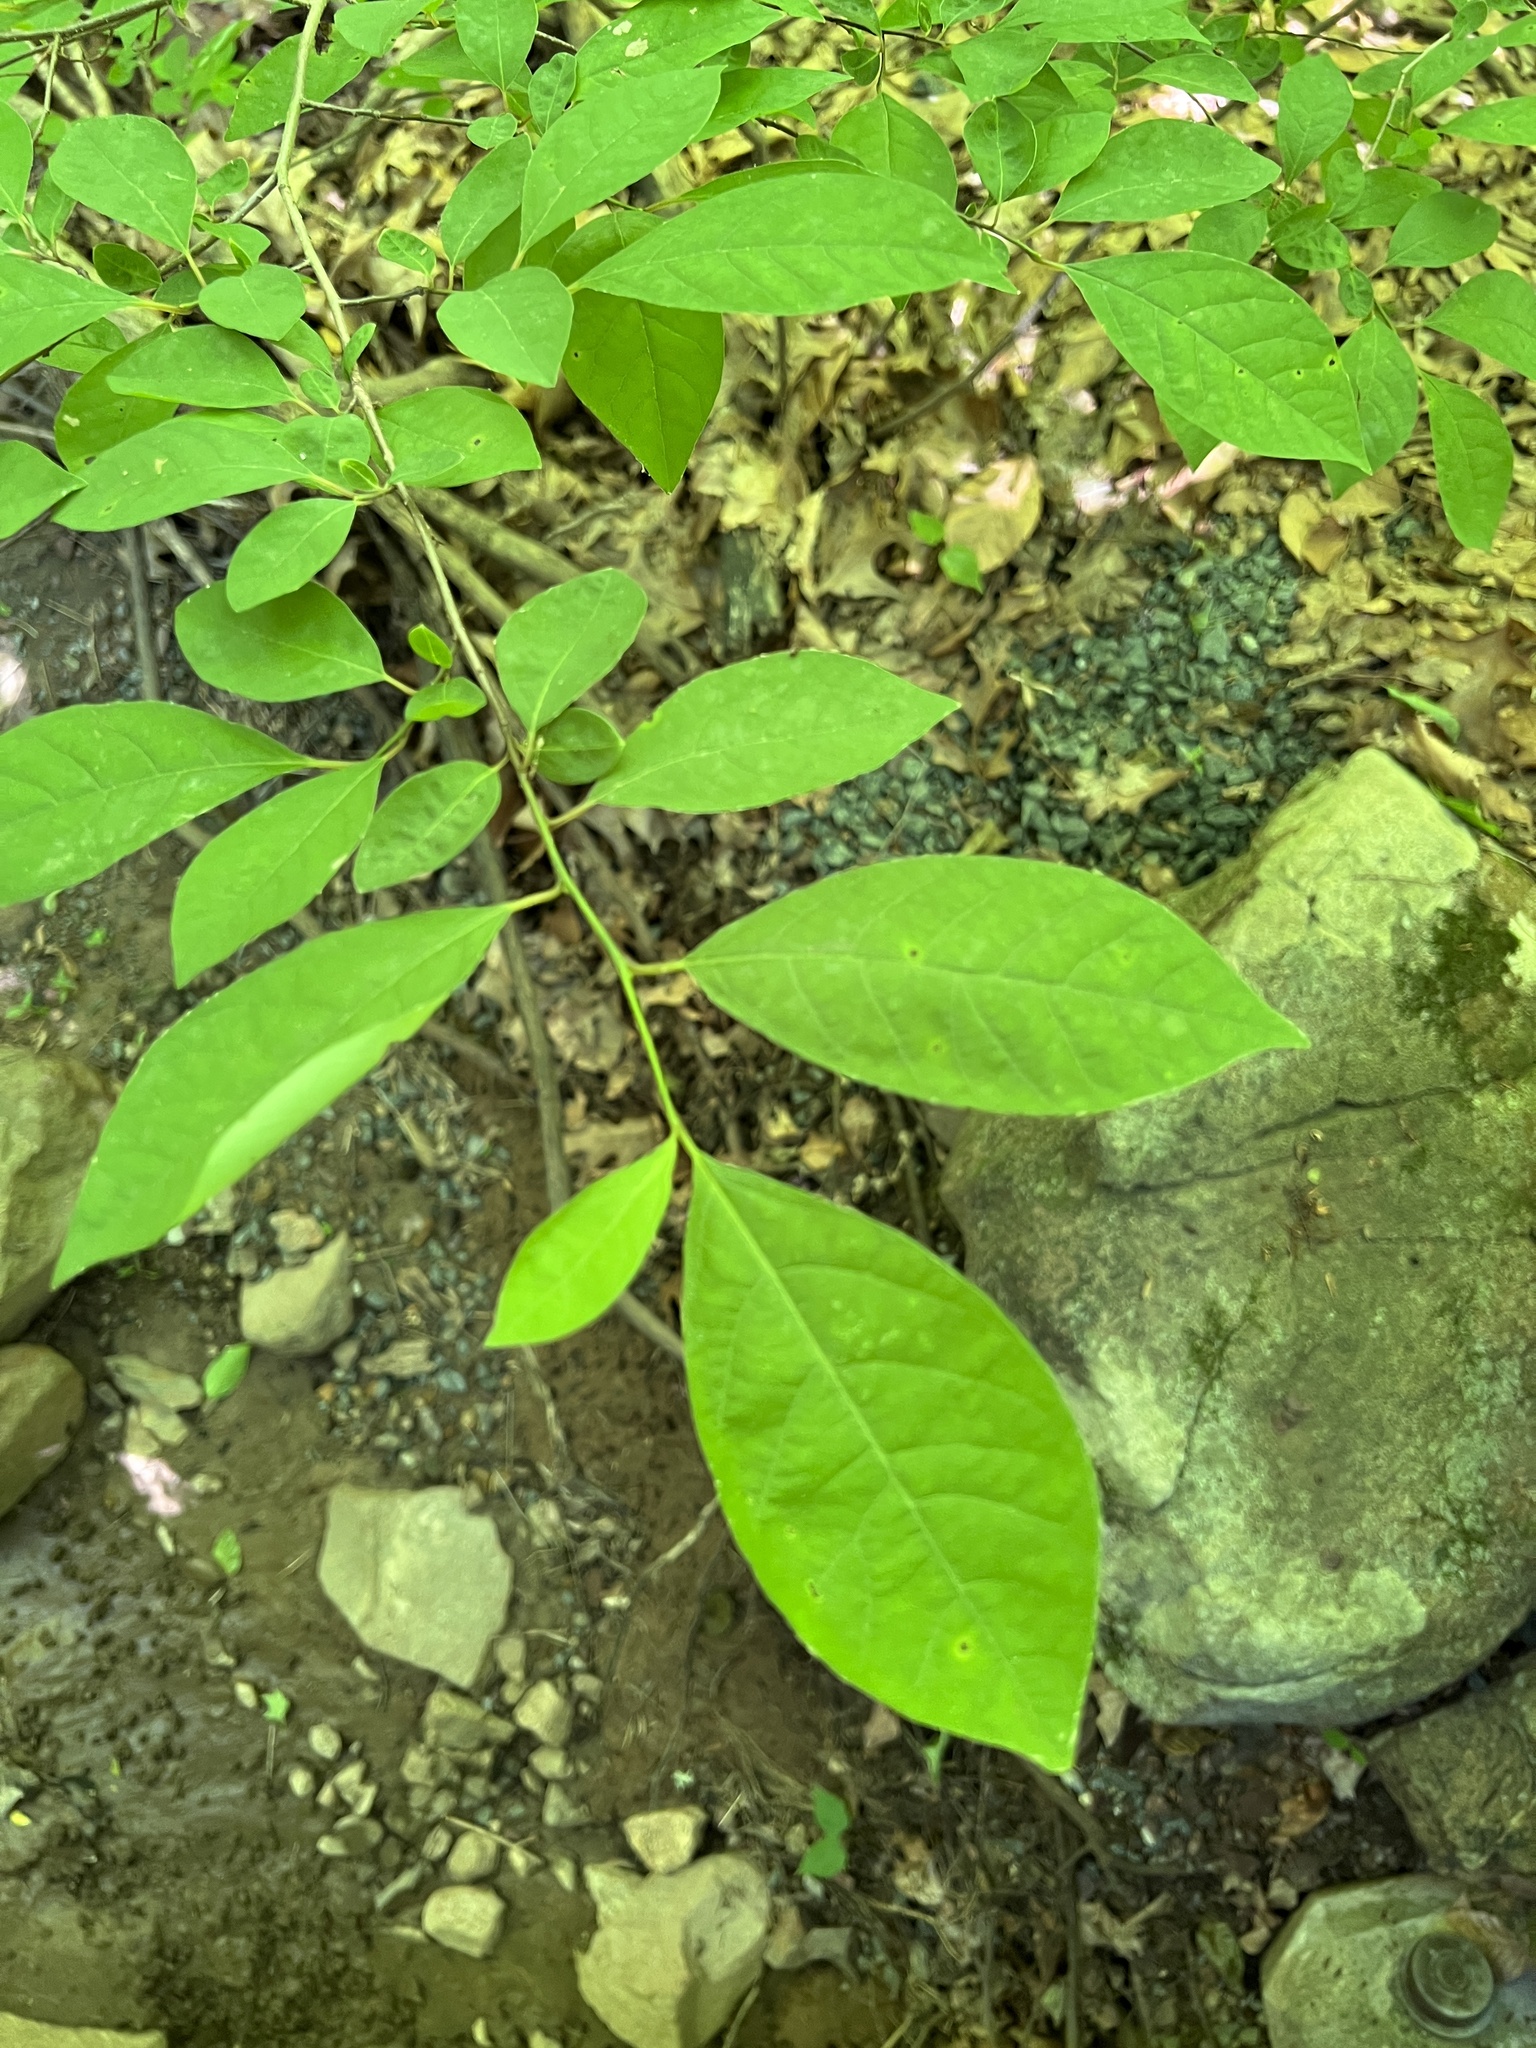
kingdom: Plantae
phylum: Tracheophyta
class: Magnoliopsida
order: Laurales
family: Lauraceae
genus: Lindera
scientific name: Lindera benzoin
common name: Spicebush
